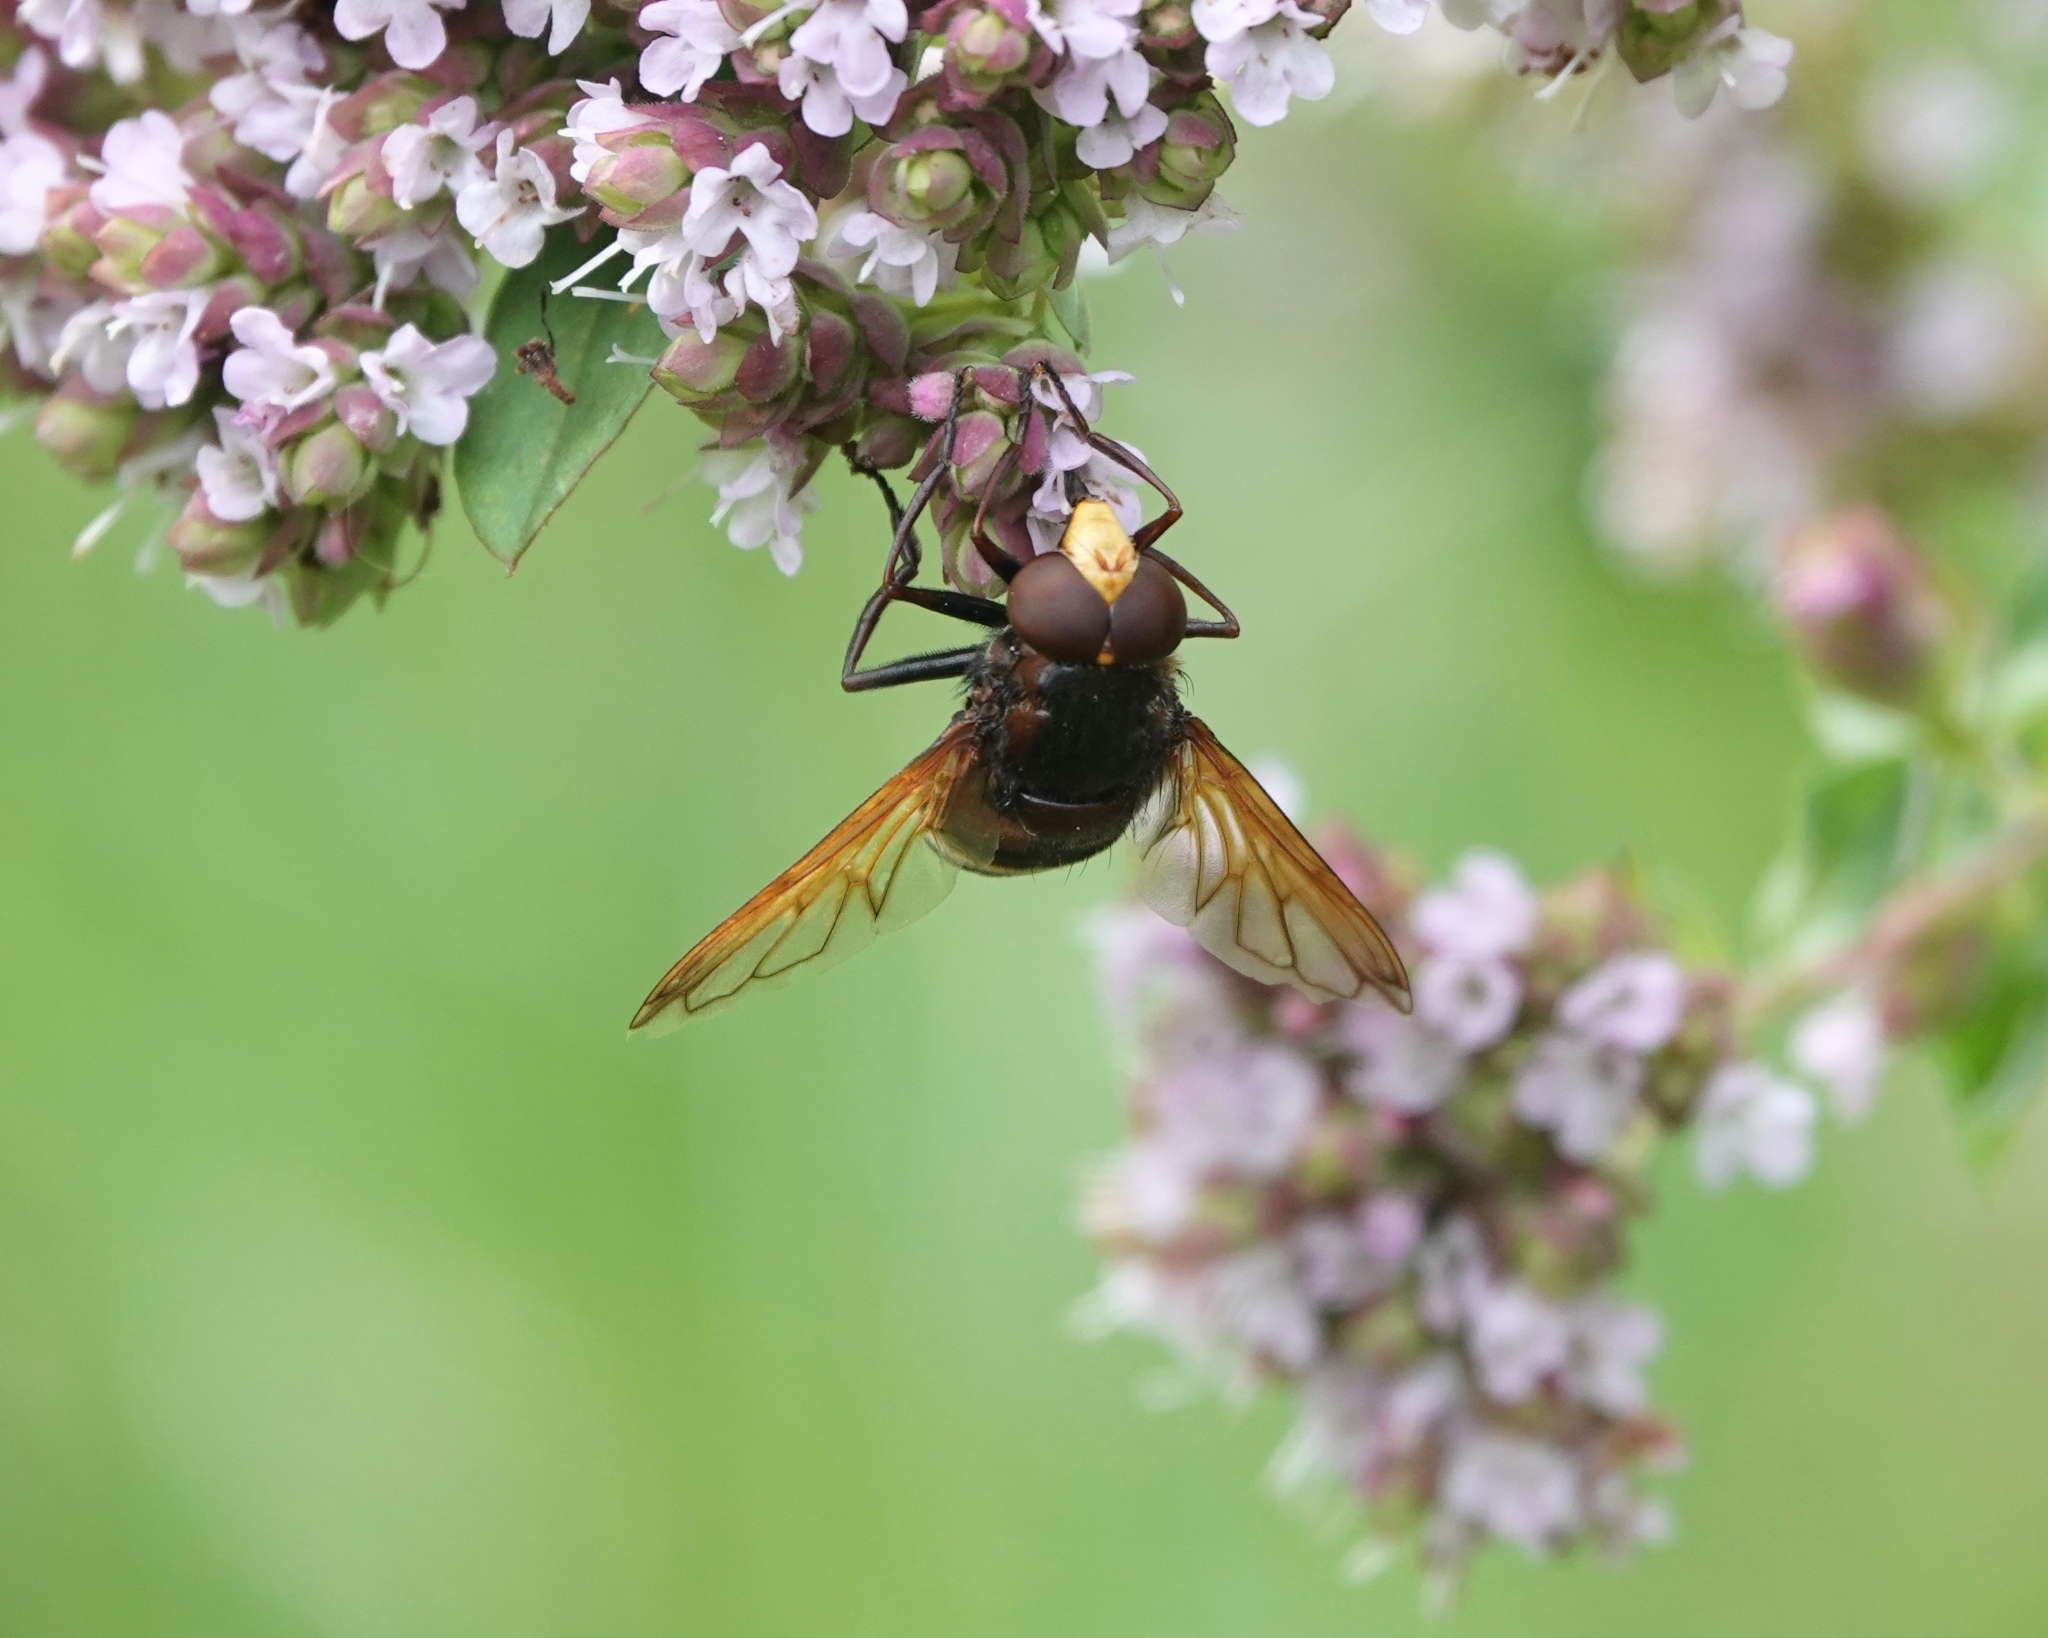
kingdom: Animalia
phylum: Arthropoda
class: Insecta
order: Diptera
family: Syrphidae
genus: Volucella
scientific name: Volucella zonaria
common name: Hornet hoverfly
